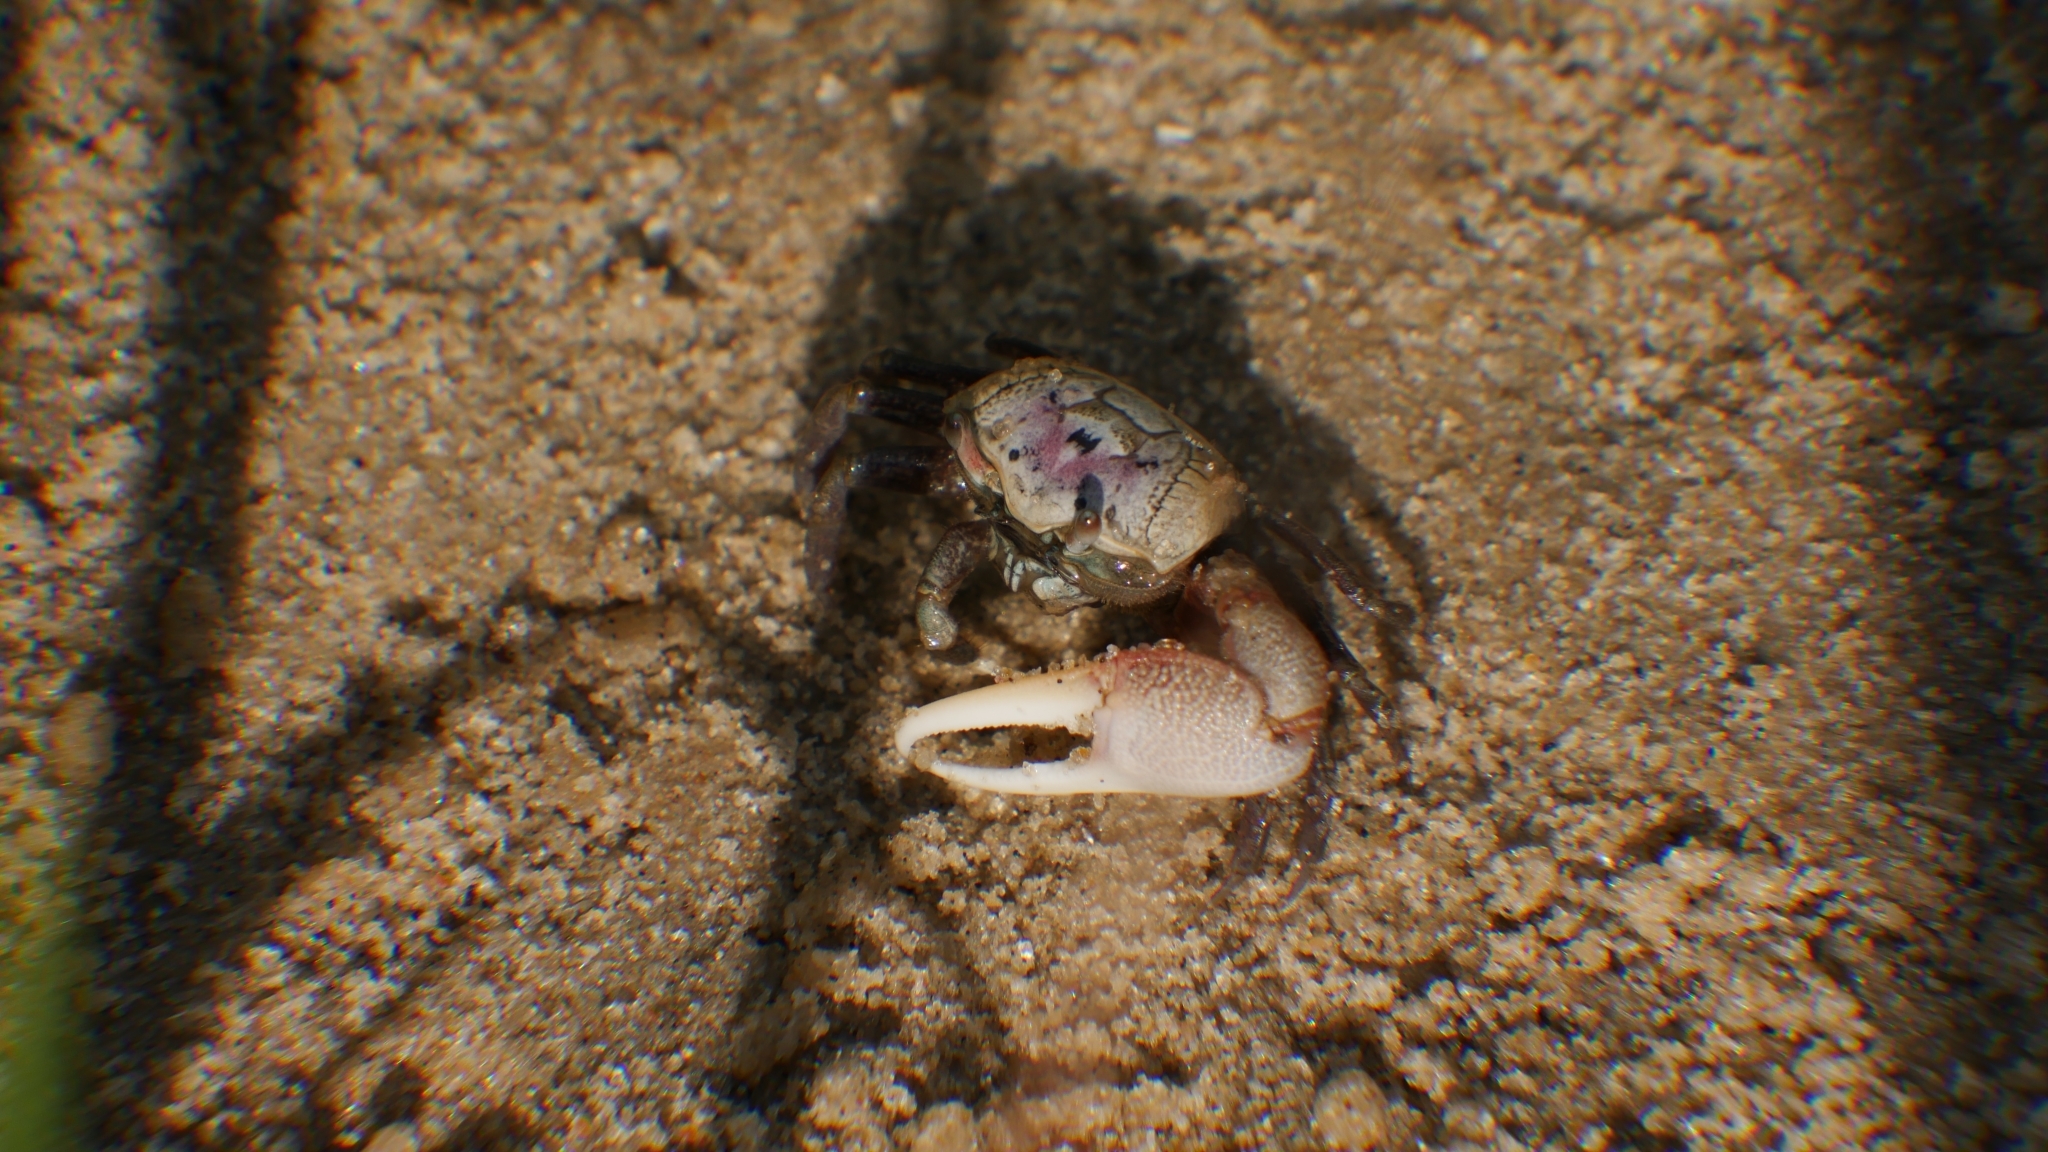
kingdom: Animalia
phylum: Arthropoda
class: Malacostraca
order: Decapoda
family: Ocypodidae
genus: Leptuca
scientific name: Leptuca pugilator
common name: Atlantic sand fiddler crab
